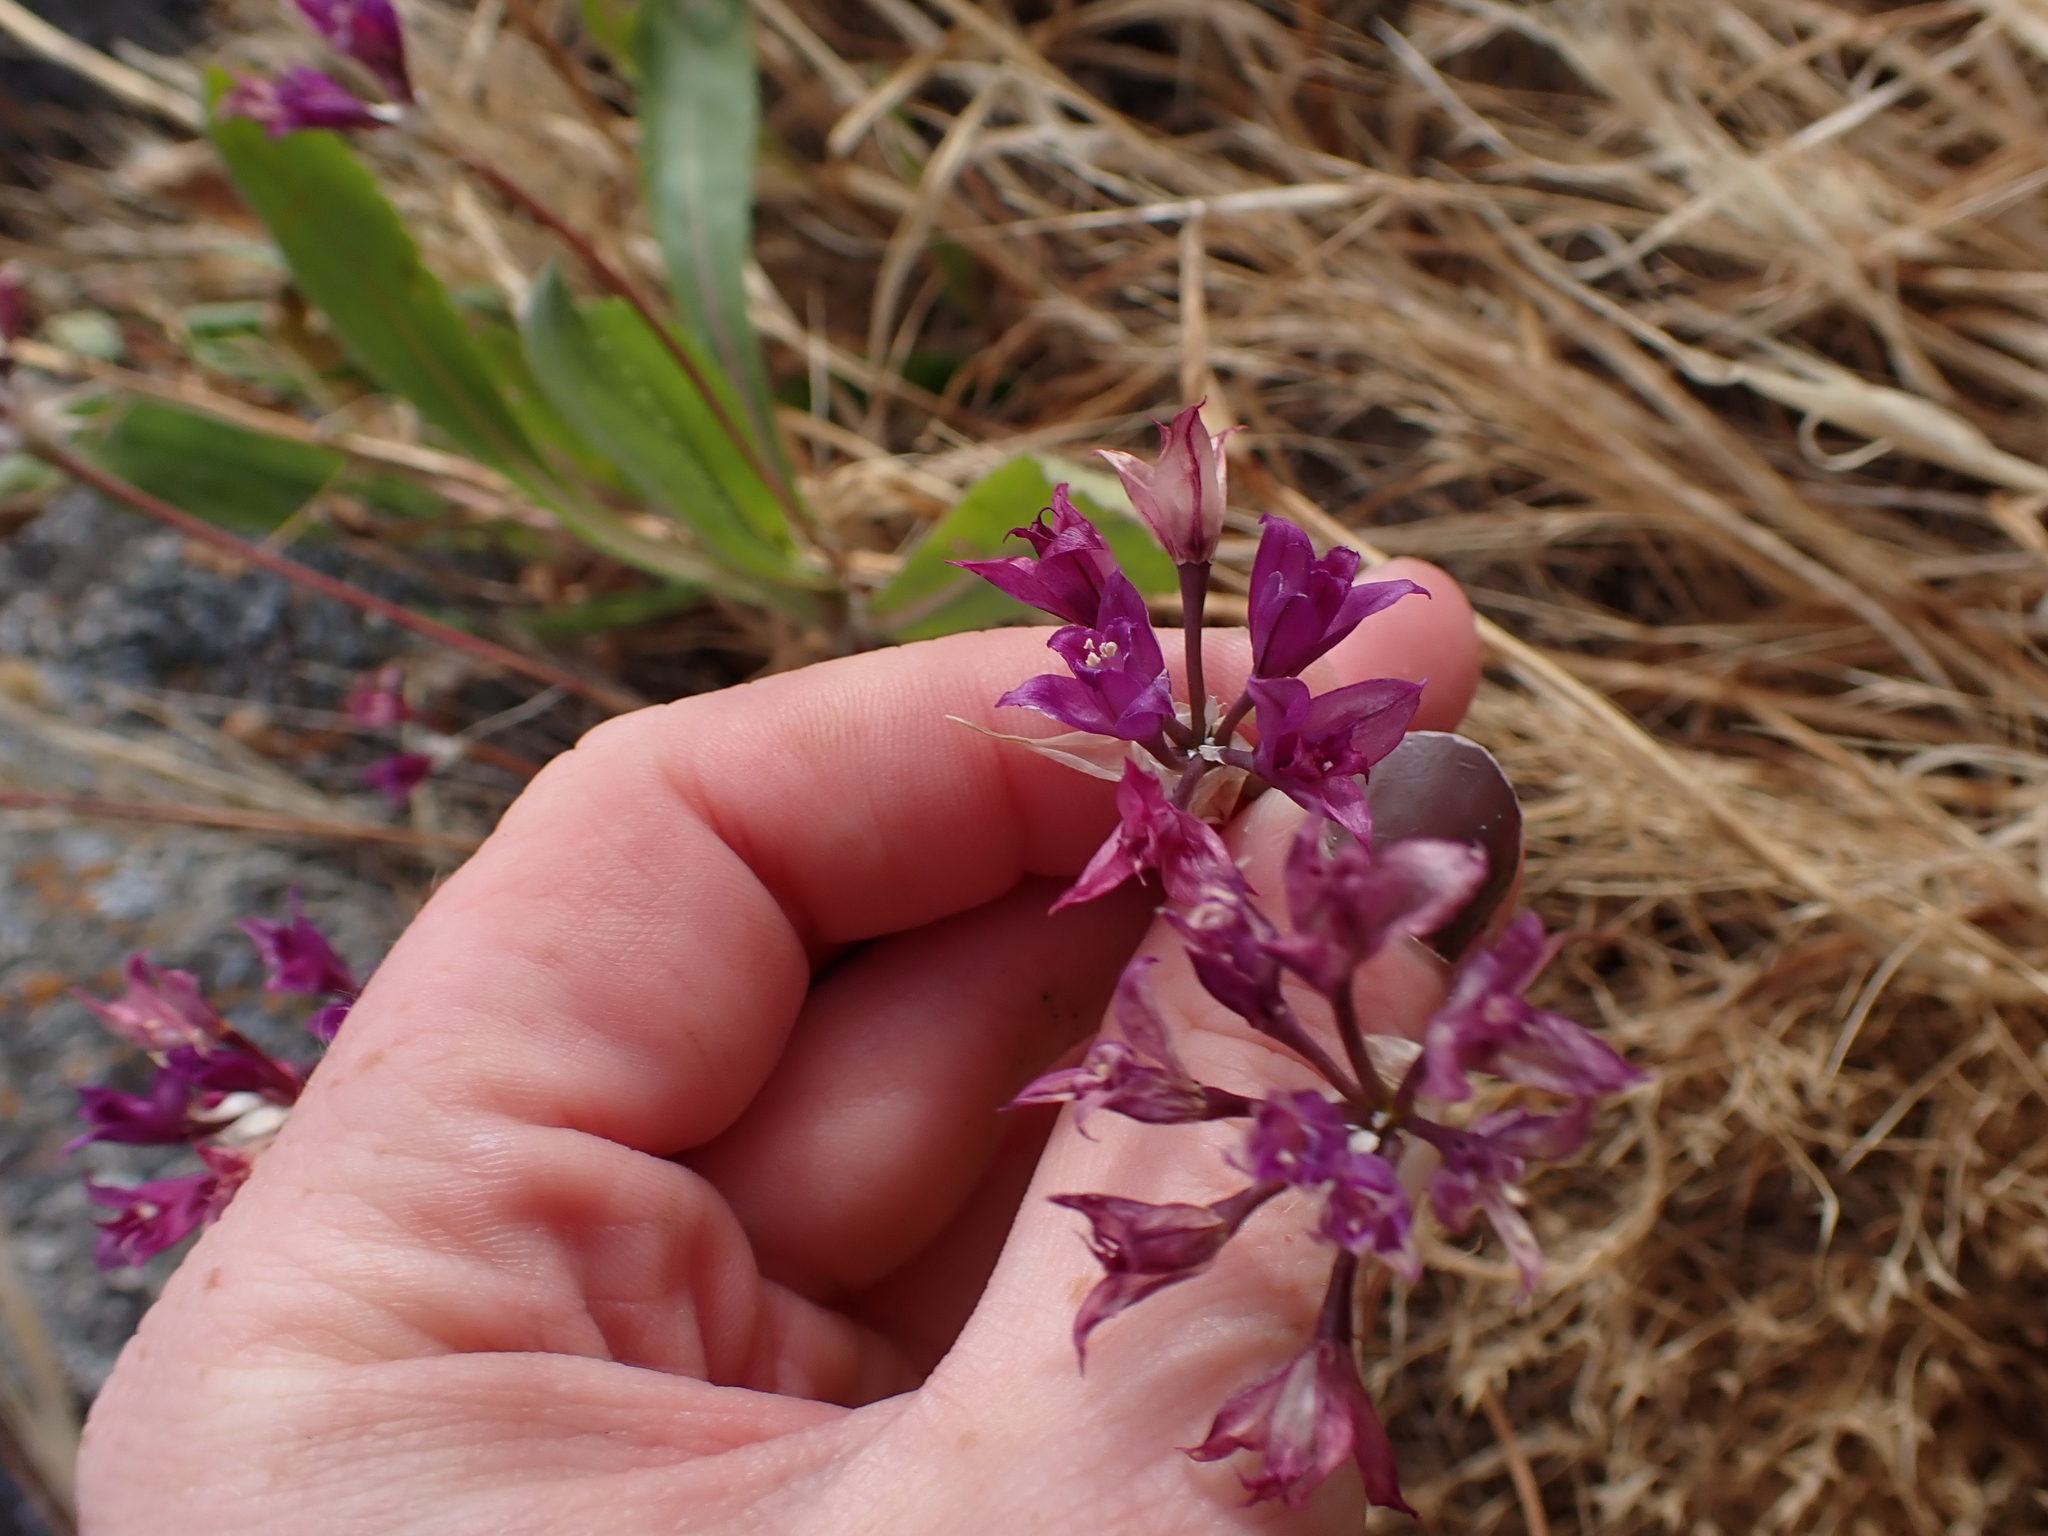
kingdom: Plantae
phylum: Tracheophyta
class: Liliopsida
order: Asparagales
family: Amaryllidaceae
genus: Allium
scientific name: Allium acuminatum
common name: Hooker's onion
